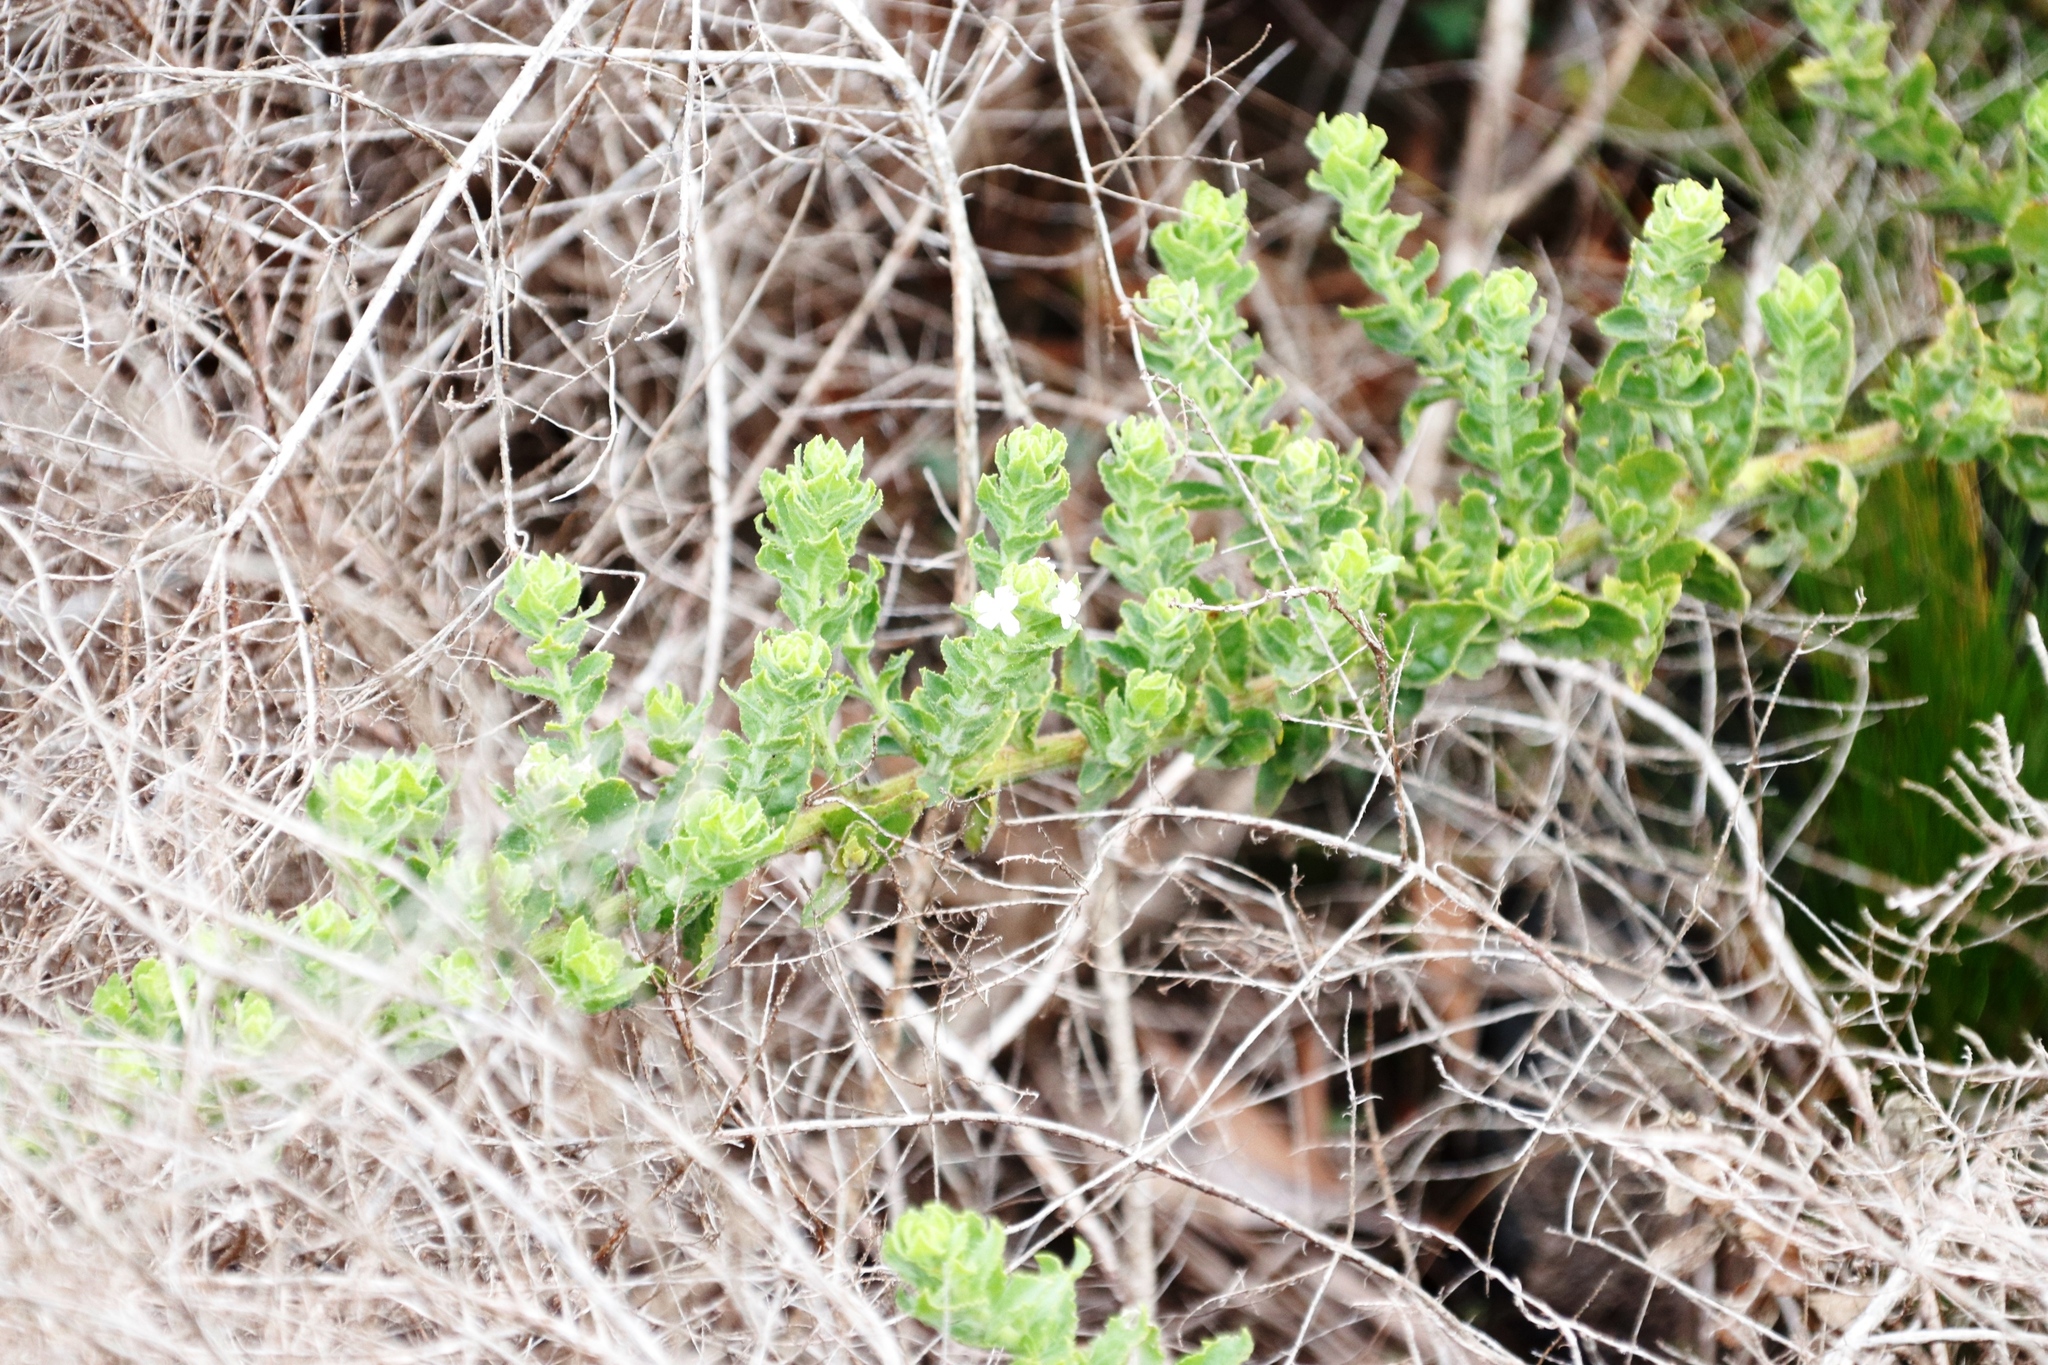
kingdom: Plantae
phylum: Tracheophyta
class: Magnoliopsida
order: Lamiales
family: Scrophulariaceae
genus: Oftia
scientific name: Oftia africana
